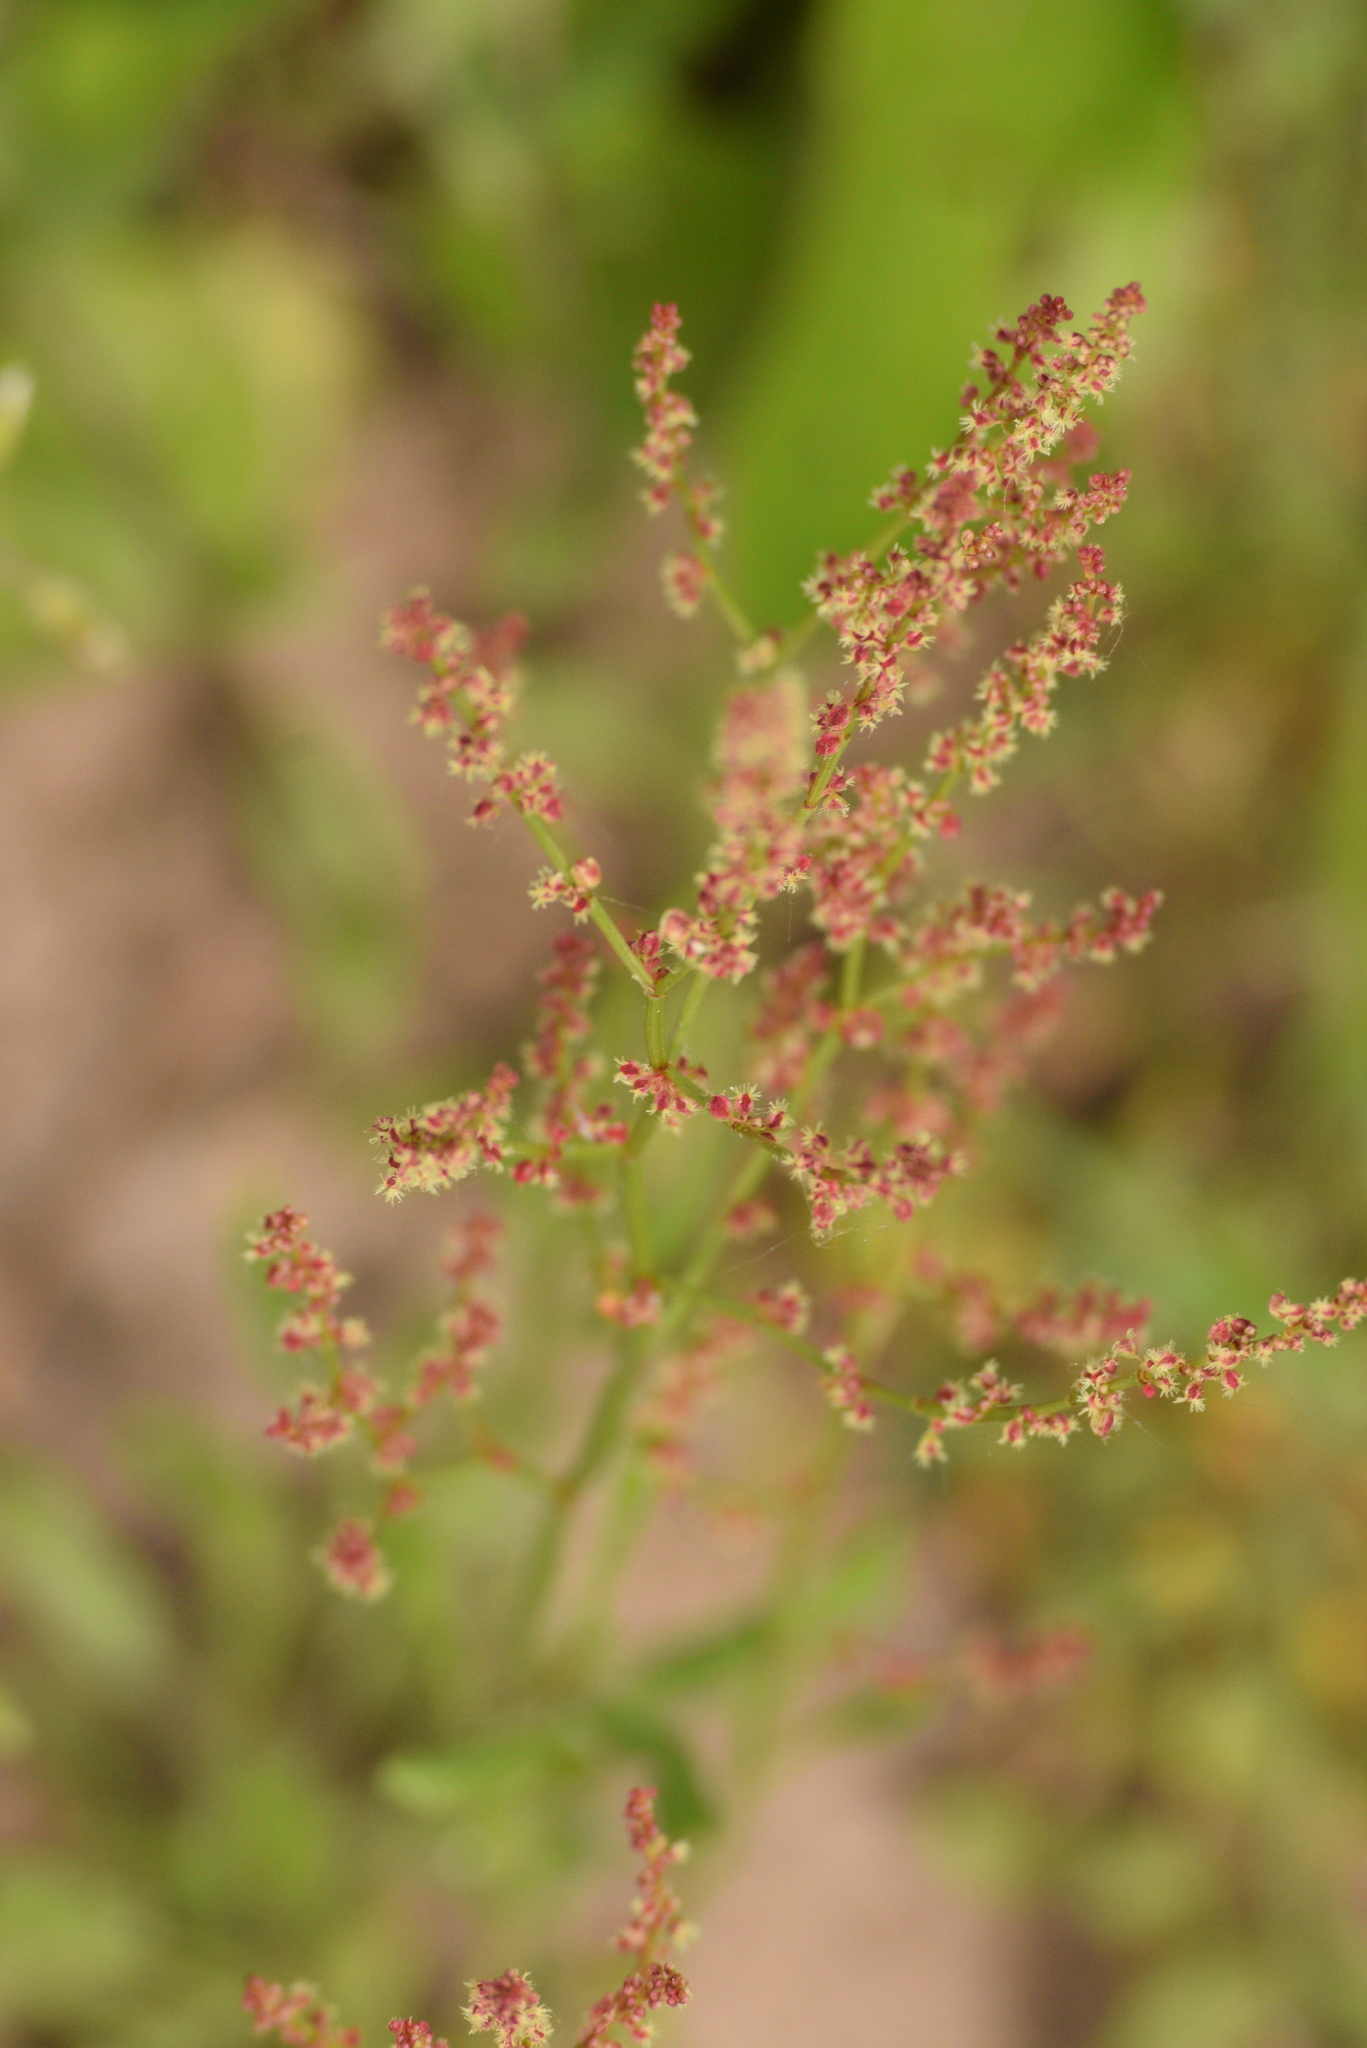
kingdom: Plantae
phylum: Tracheophyta
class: Magnoliopsida
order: Caryophyllales
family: Polygonaceae
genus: Rumex
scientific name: Rumex acetosella
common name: Common sheep sorrel
